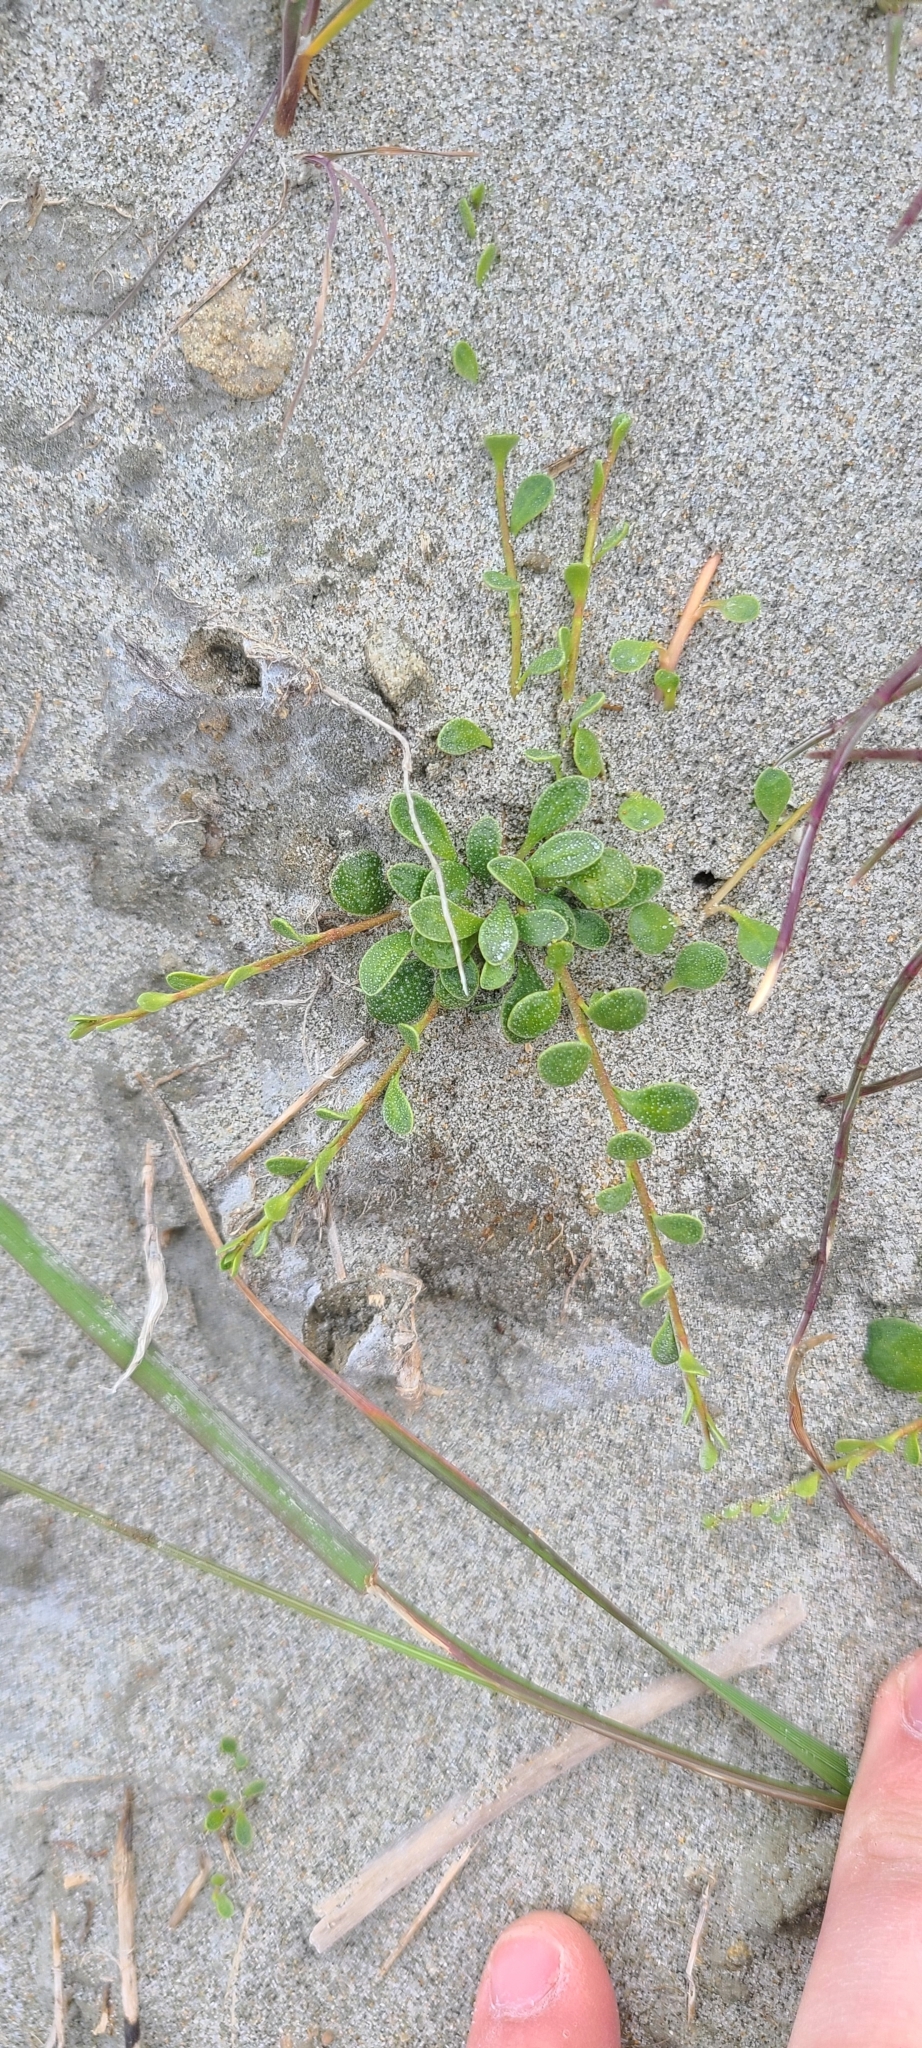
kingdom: Plantae
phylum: Tracheophyta
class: Magnoliopsida
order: Ericales
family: Primulaceae
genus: Samolus
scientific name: Samolus repens
